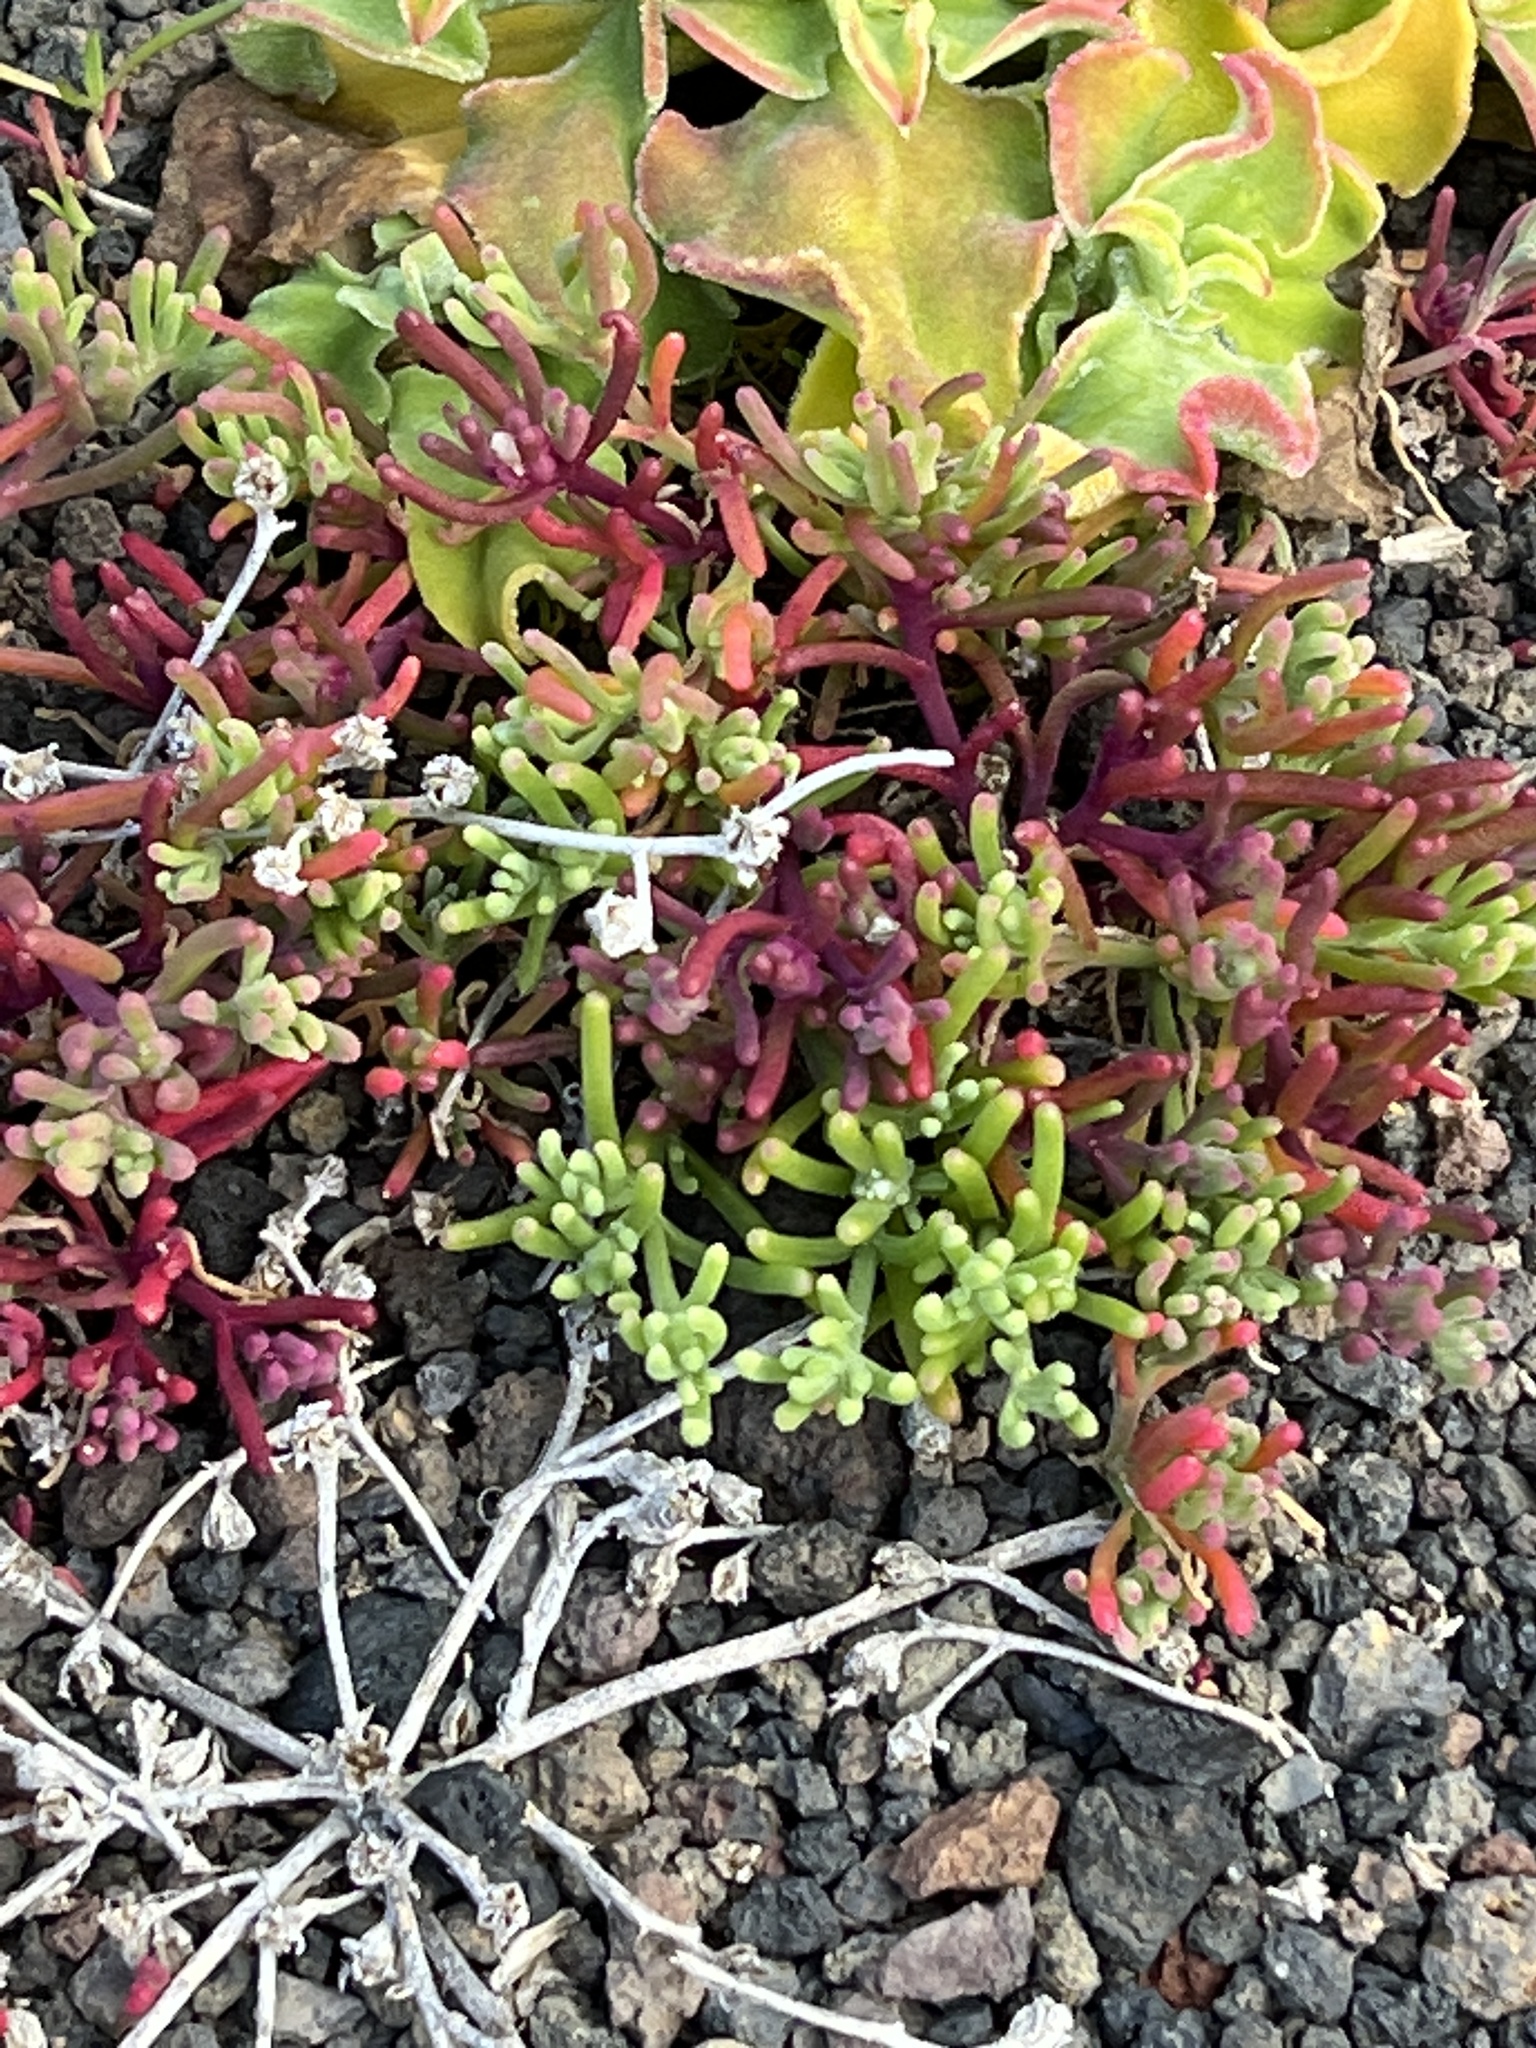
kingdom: Plantae
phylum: Tracheophyta
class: Magnoliopsida
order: Caryophyllales
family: Aizoaceae
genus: Mesembryanthemum
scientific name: Mesembryanthemum nodiflorum
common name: Slenderleaf iceplant
